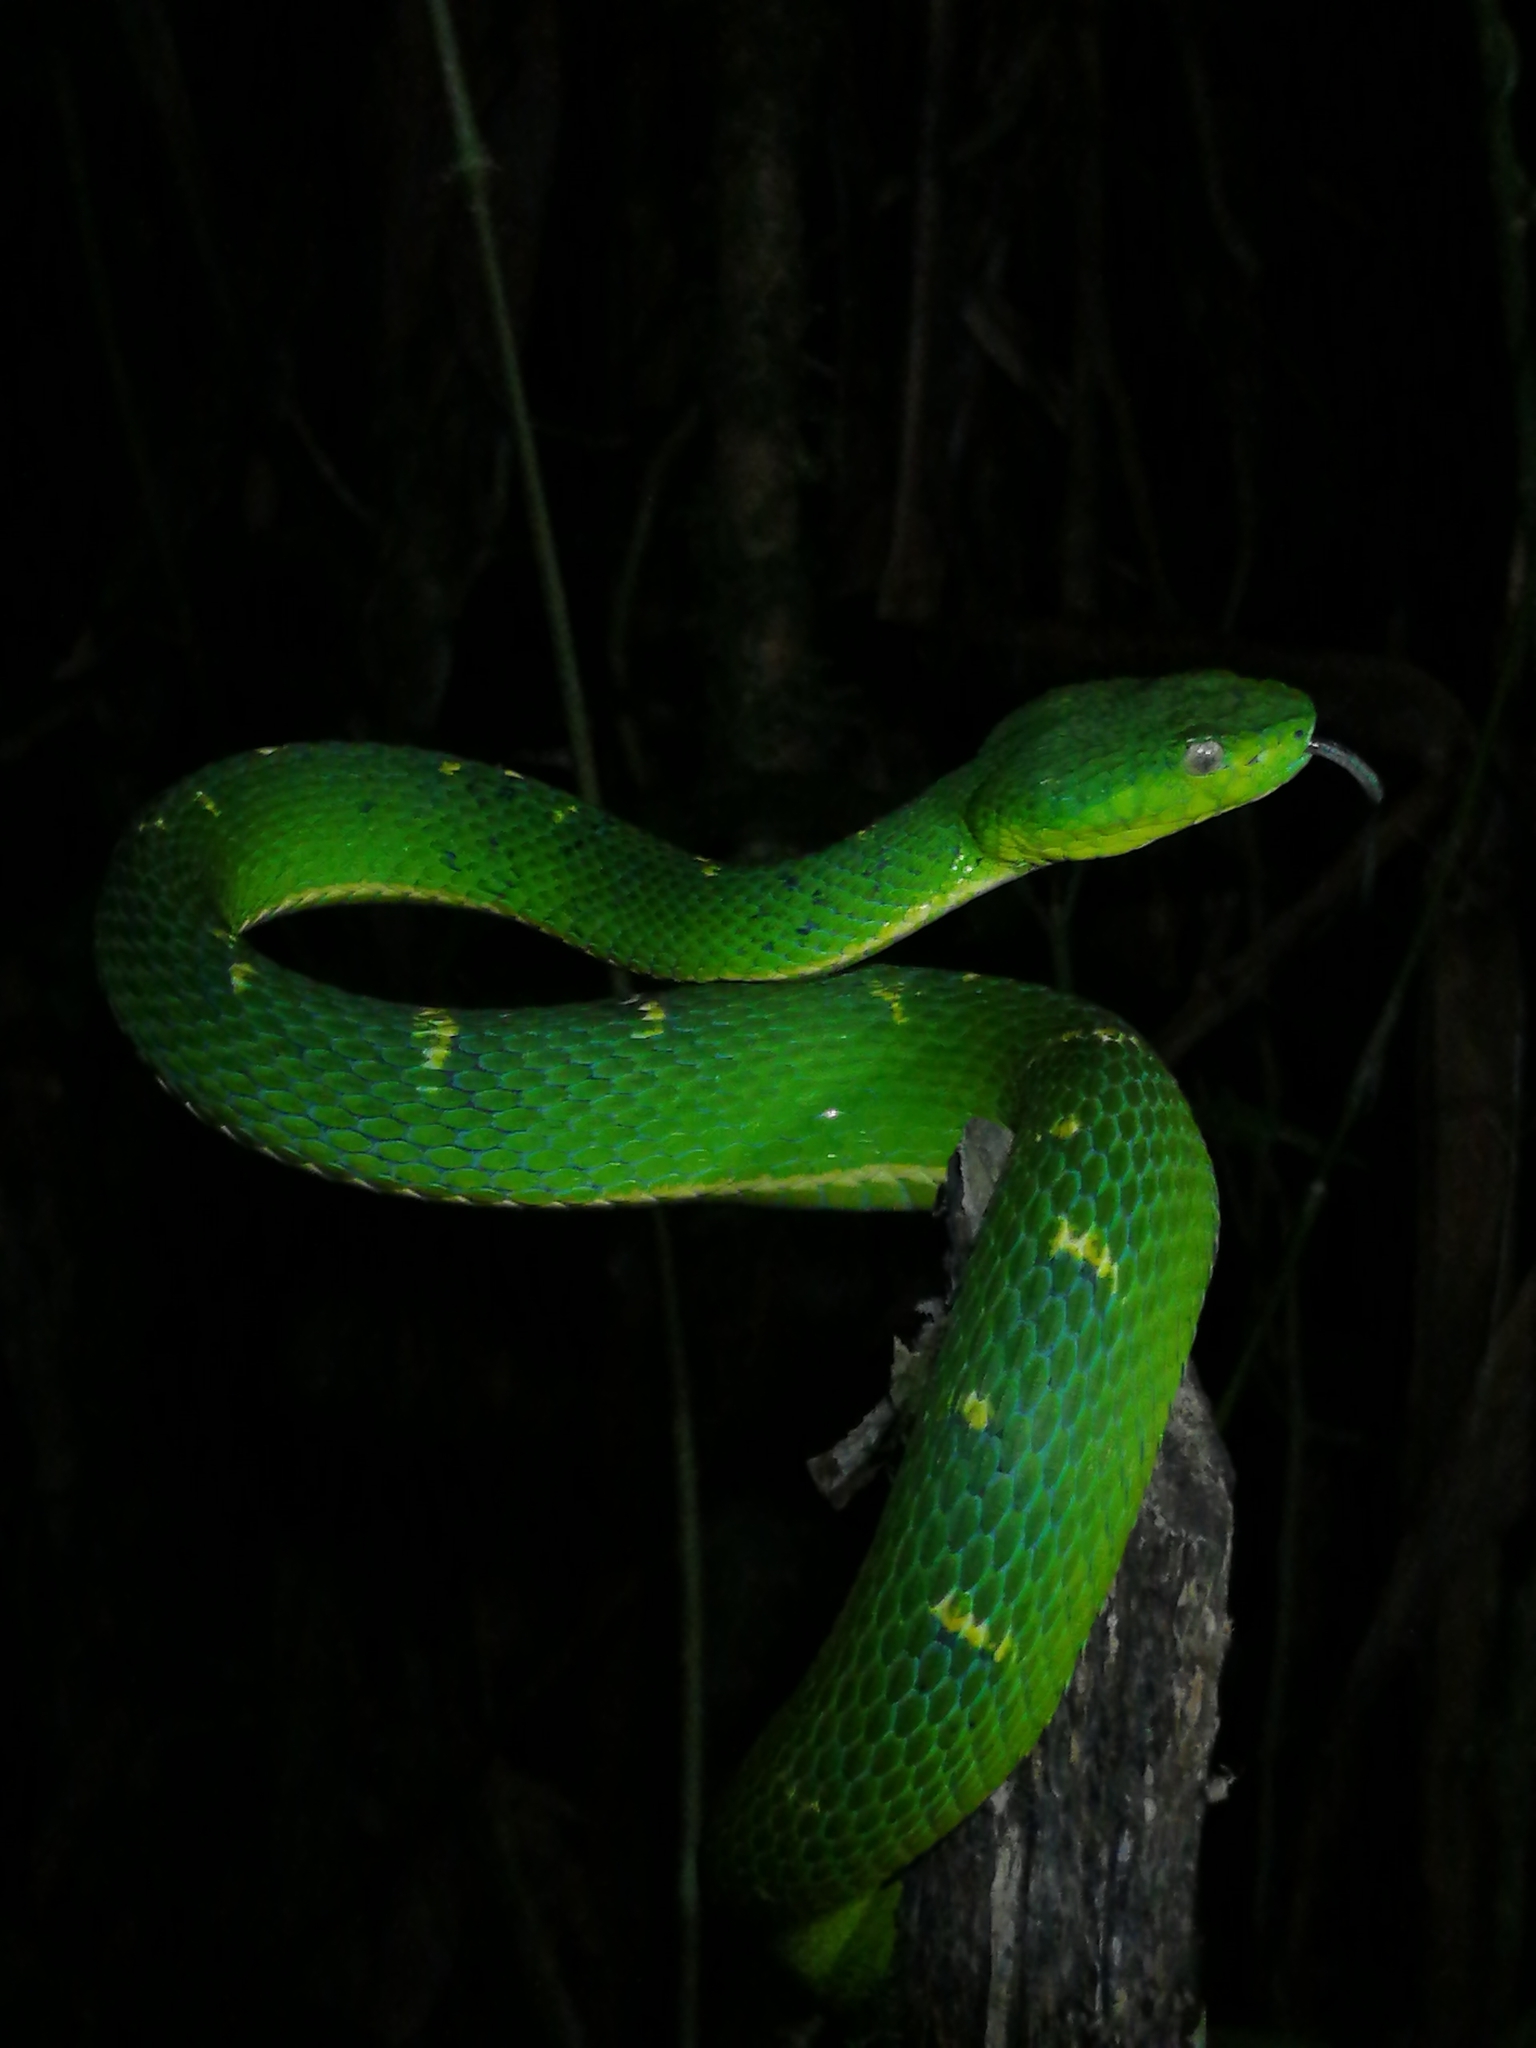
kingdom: Animalia
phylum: Chordata
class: Squamata
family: Viperidae
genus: Bothriechis
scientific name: Bothriechis lateralis
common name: Coffee palm viper
